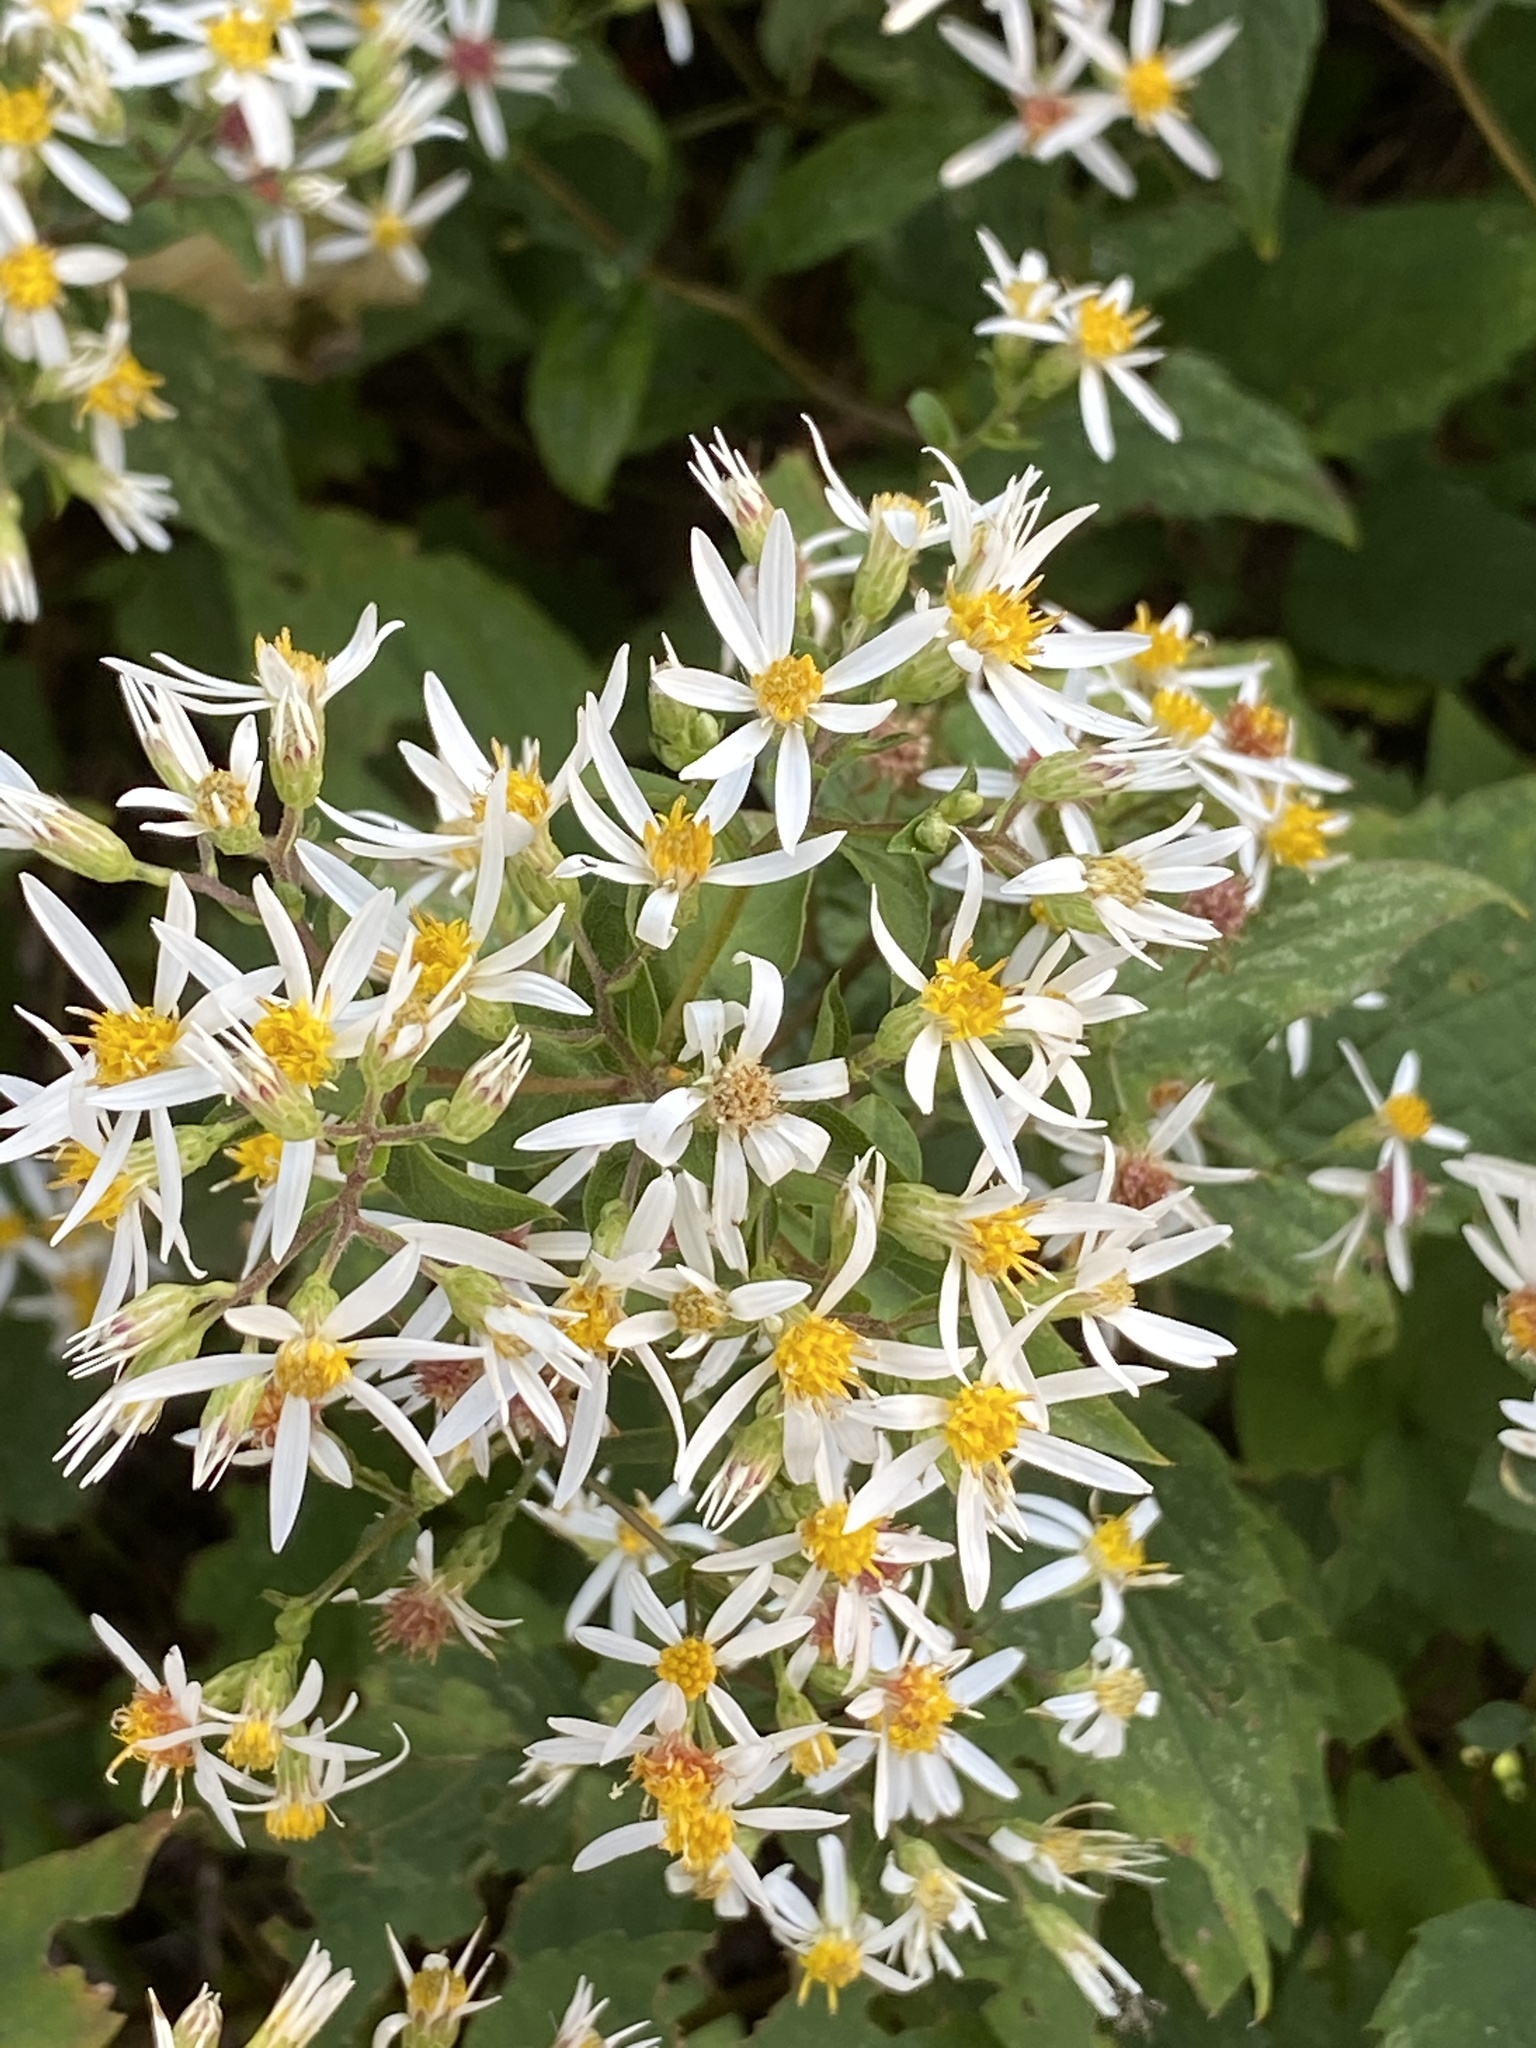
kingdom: Plantae
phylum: Tracheophyta
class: Magnoliopsida
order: Asterales
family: Asteraceae
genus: Eurybia
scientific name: Eurybia divaricata
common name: White wood aster
